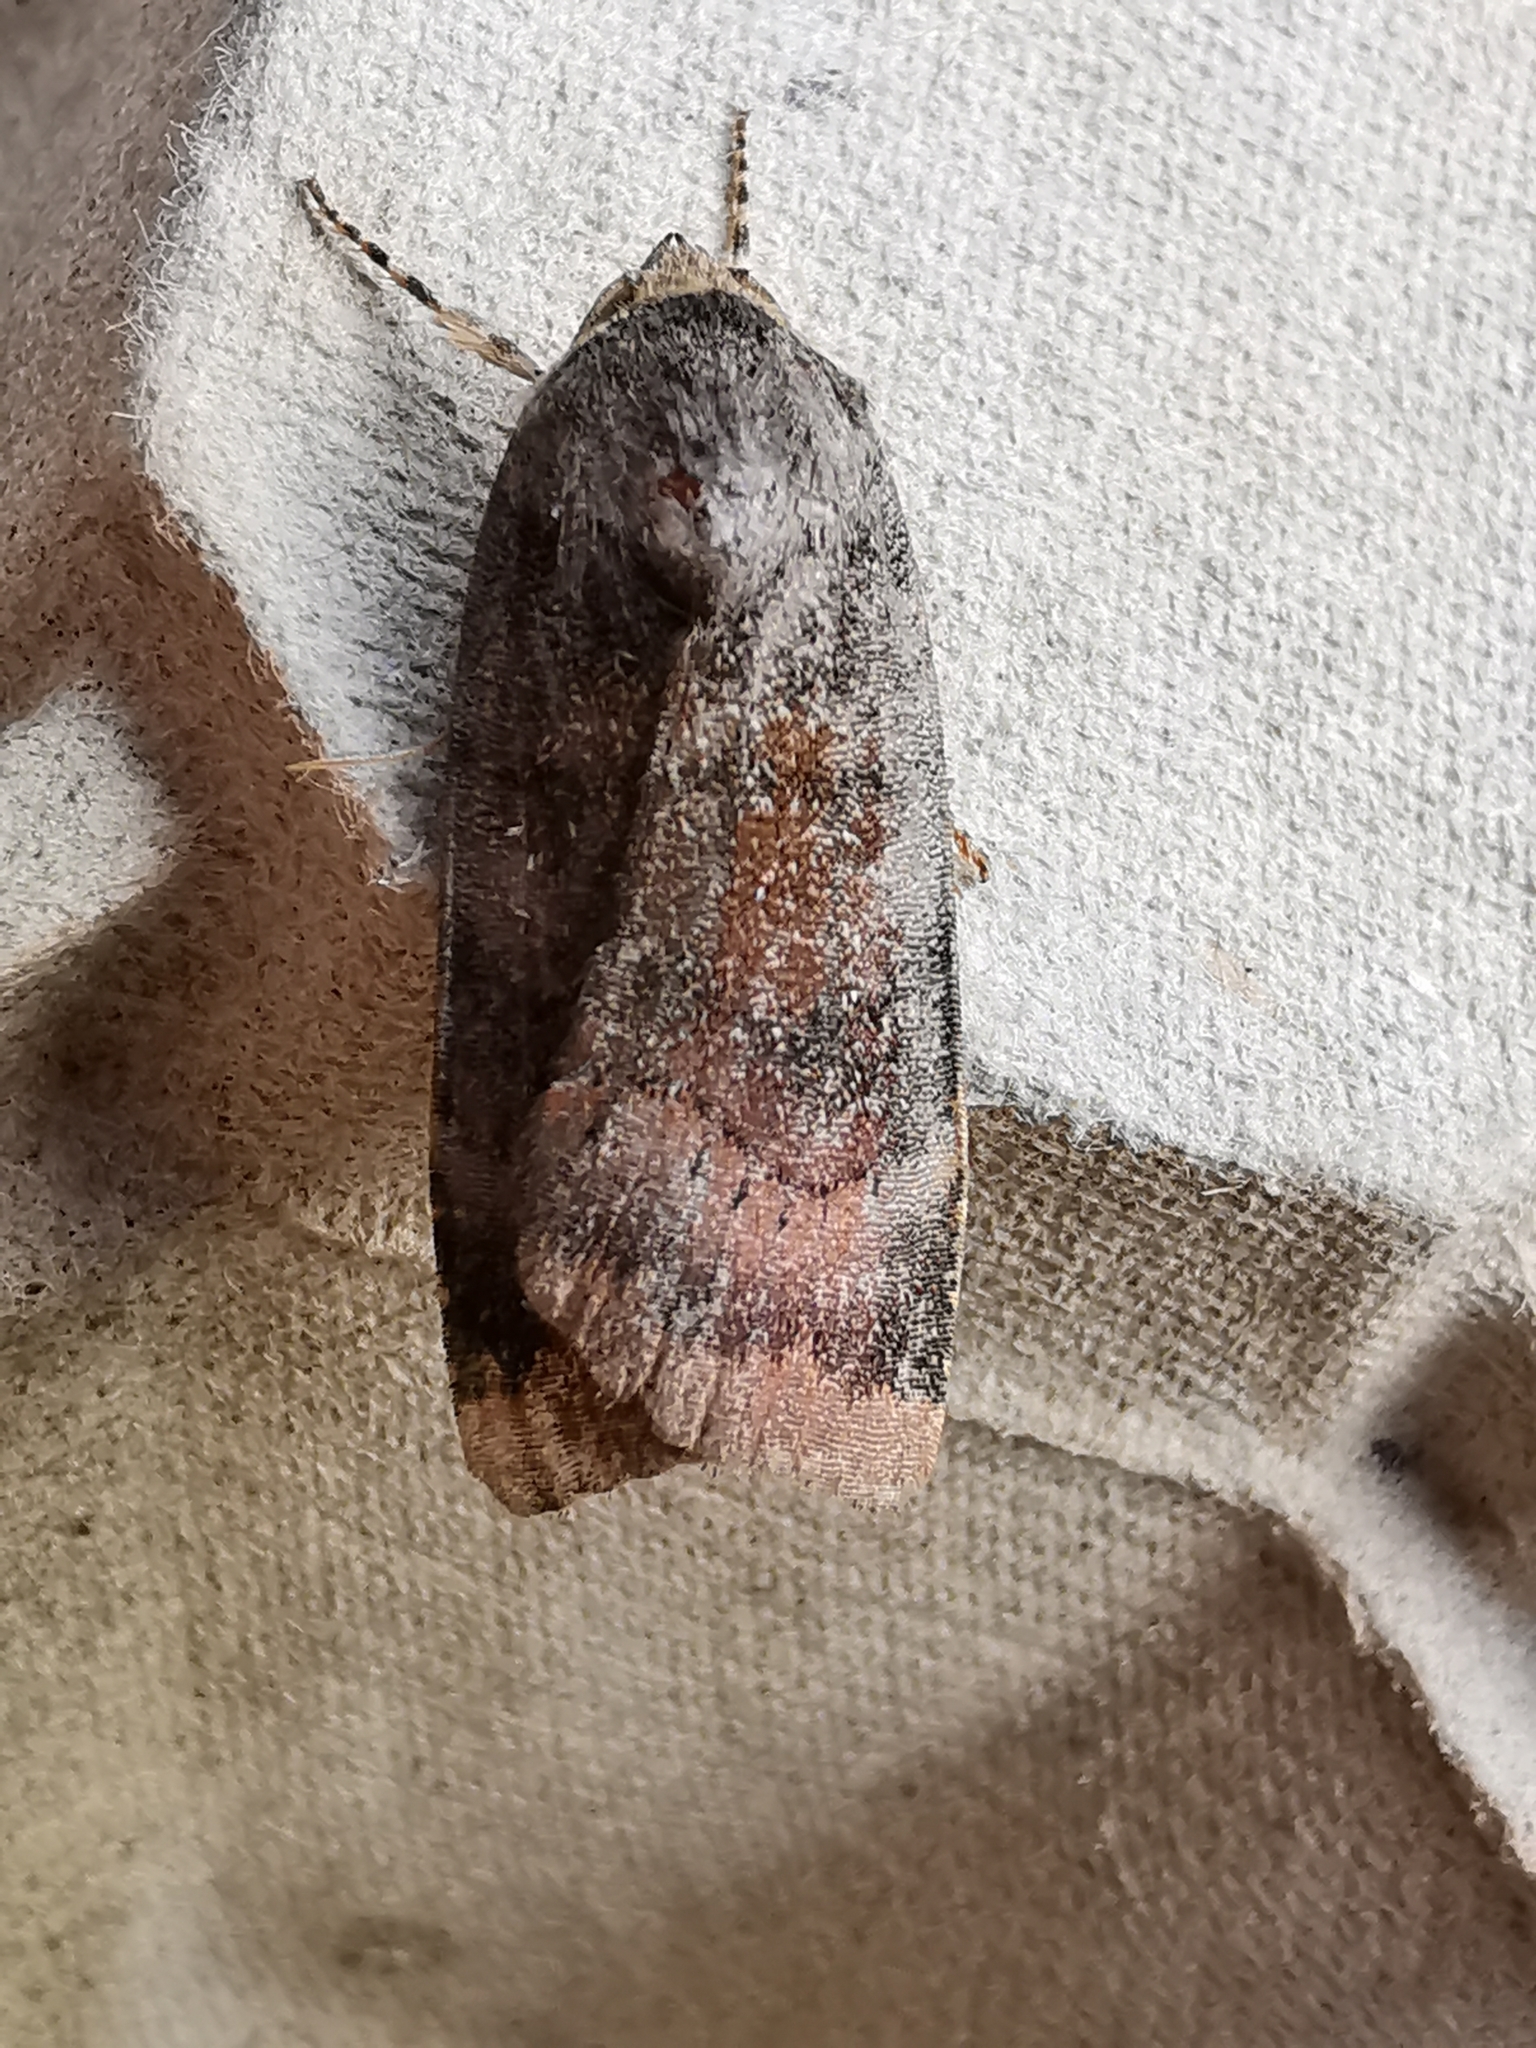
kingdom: Animalia
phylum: Arthropoda
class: Insecta
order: Lepidoptera
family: Noctuidae
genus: Noctua
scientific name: Noctua janthe
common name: Lesser broad-bordered yellow underwing
